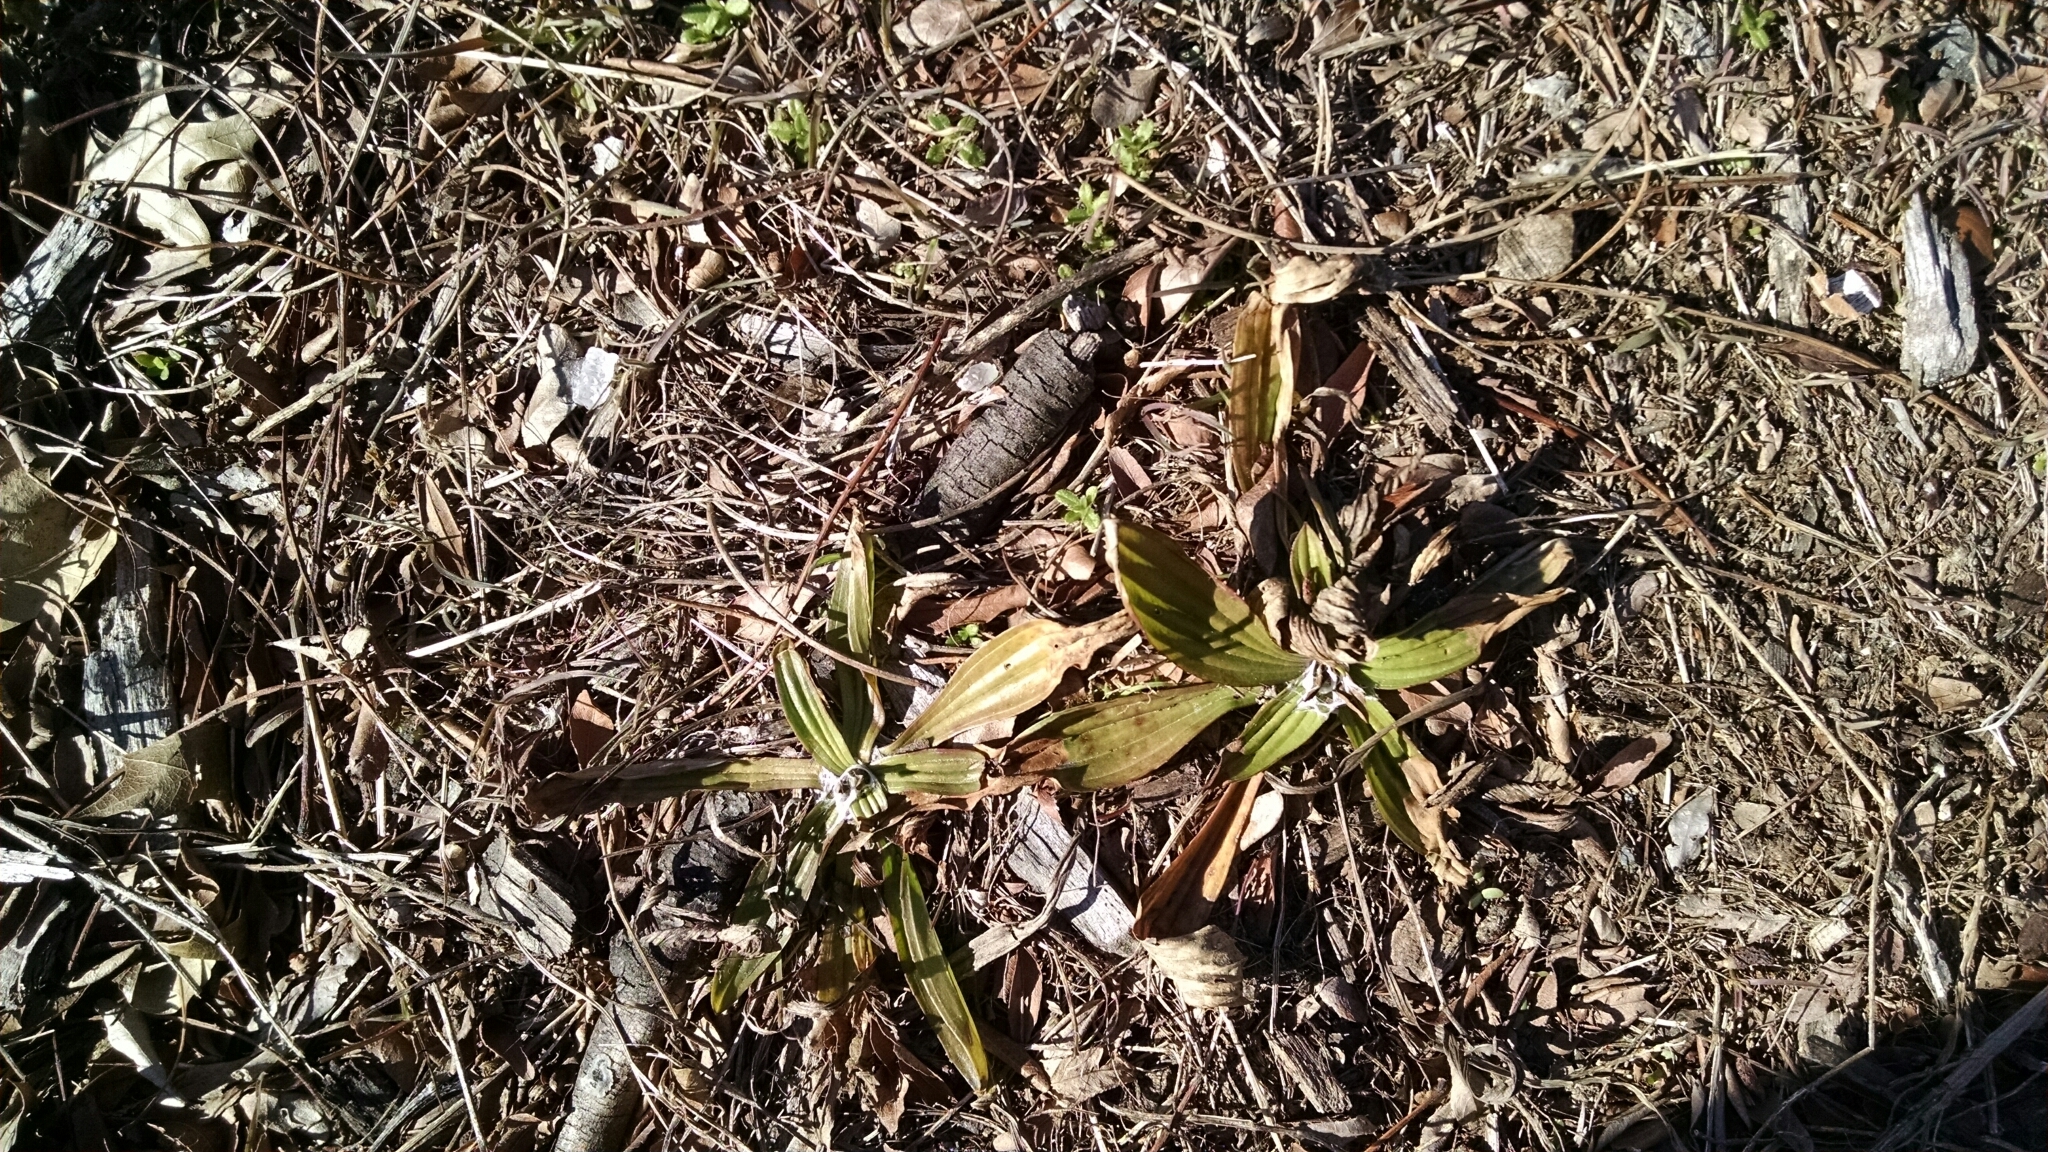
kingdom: Plantae
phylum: Tracheophyta
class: Magnoliopsida
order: Lamiales
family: Plantaginaceae
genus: Plantago
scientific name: Plantago lanceolata
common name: Ribwort plantain
